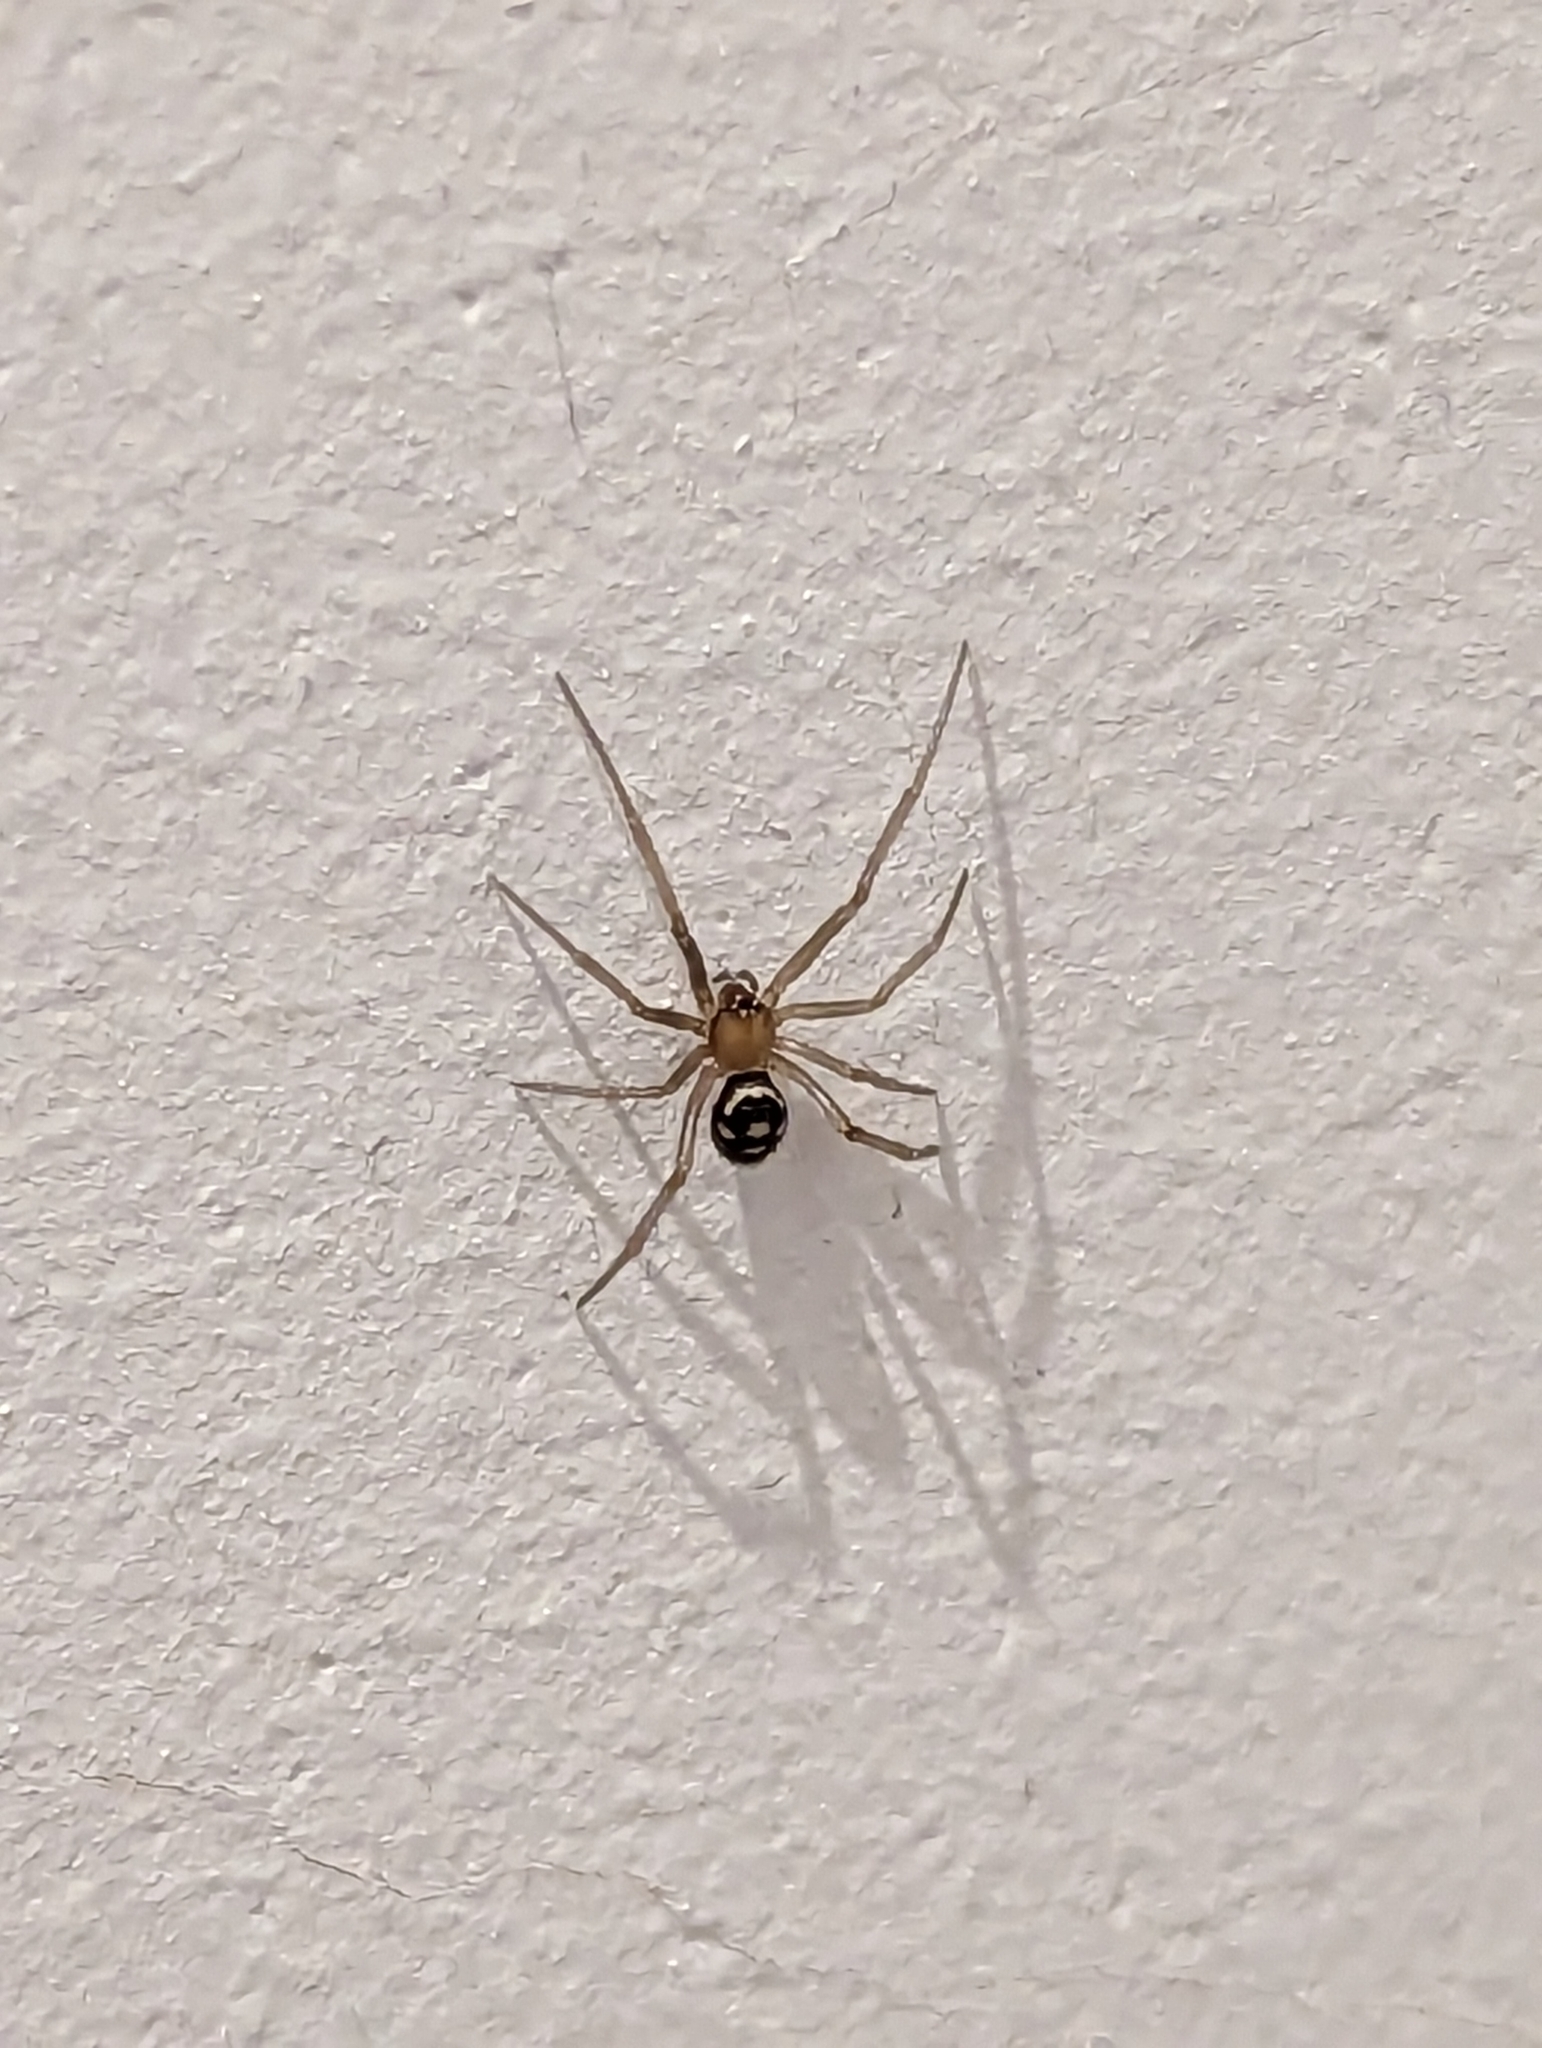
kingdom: Animalia
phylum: Arthropoda
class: Arachnida
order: Araneae
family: Theridiidae
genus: Steatoda
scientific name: Steatoda grossa
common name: False black widow
